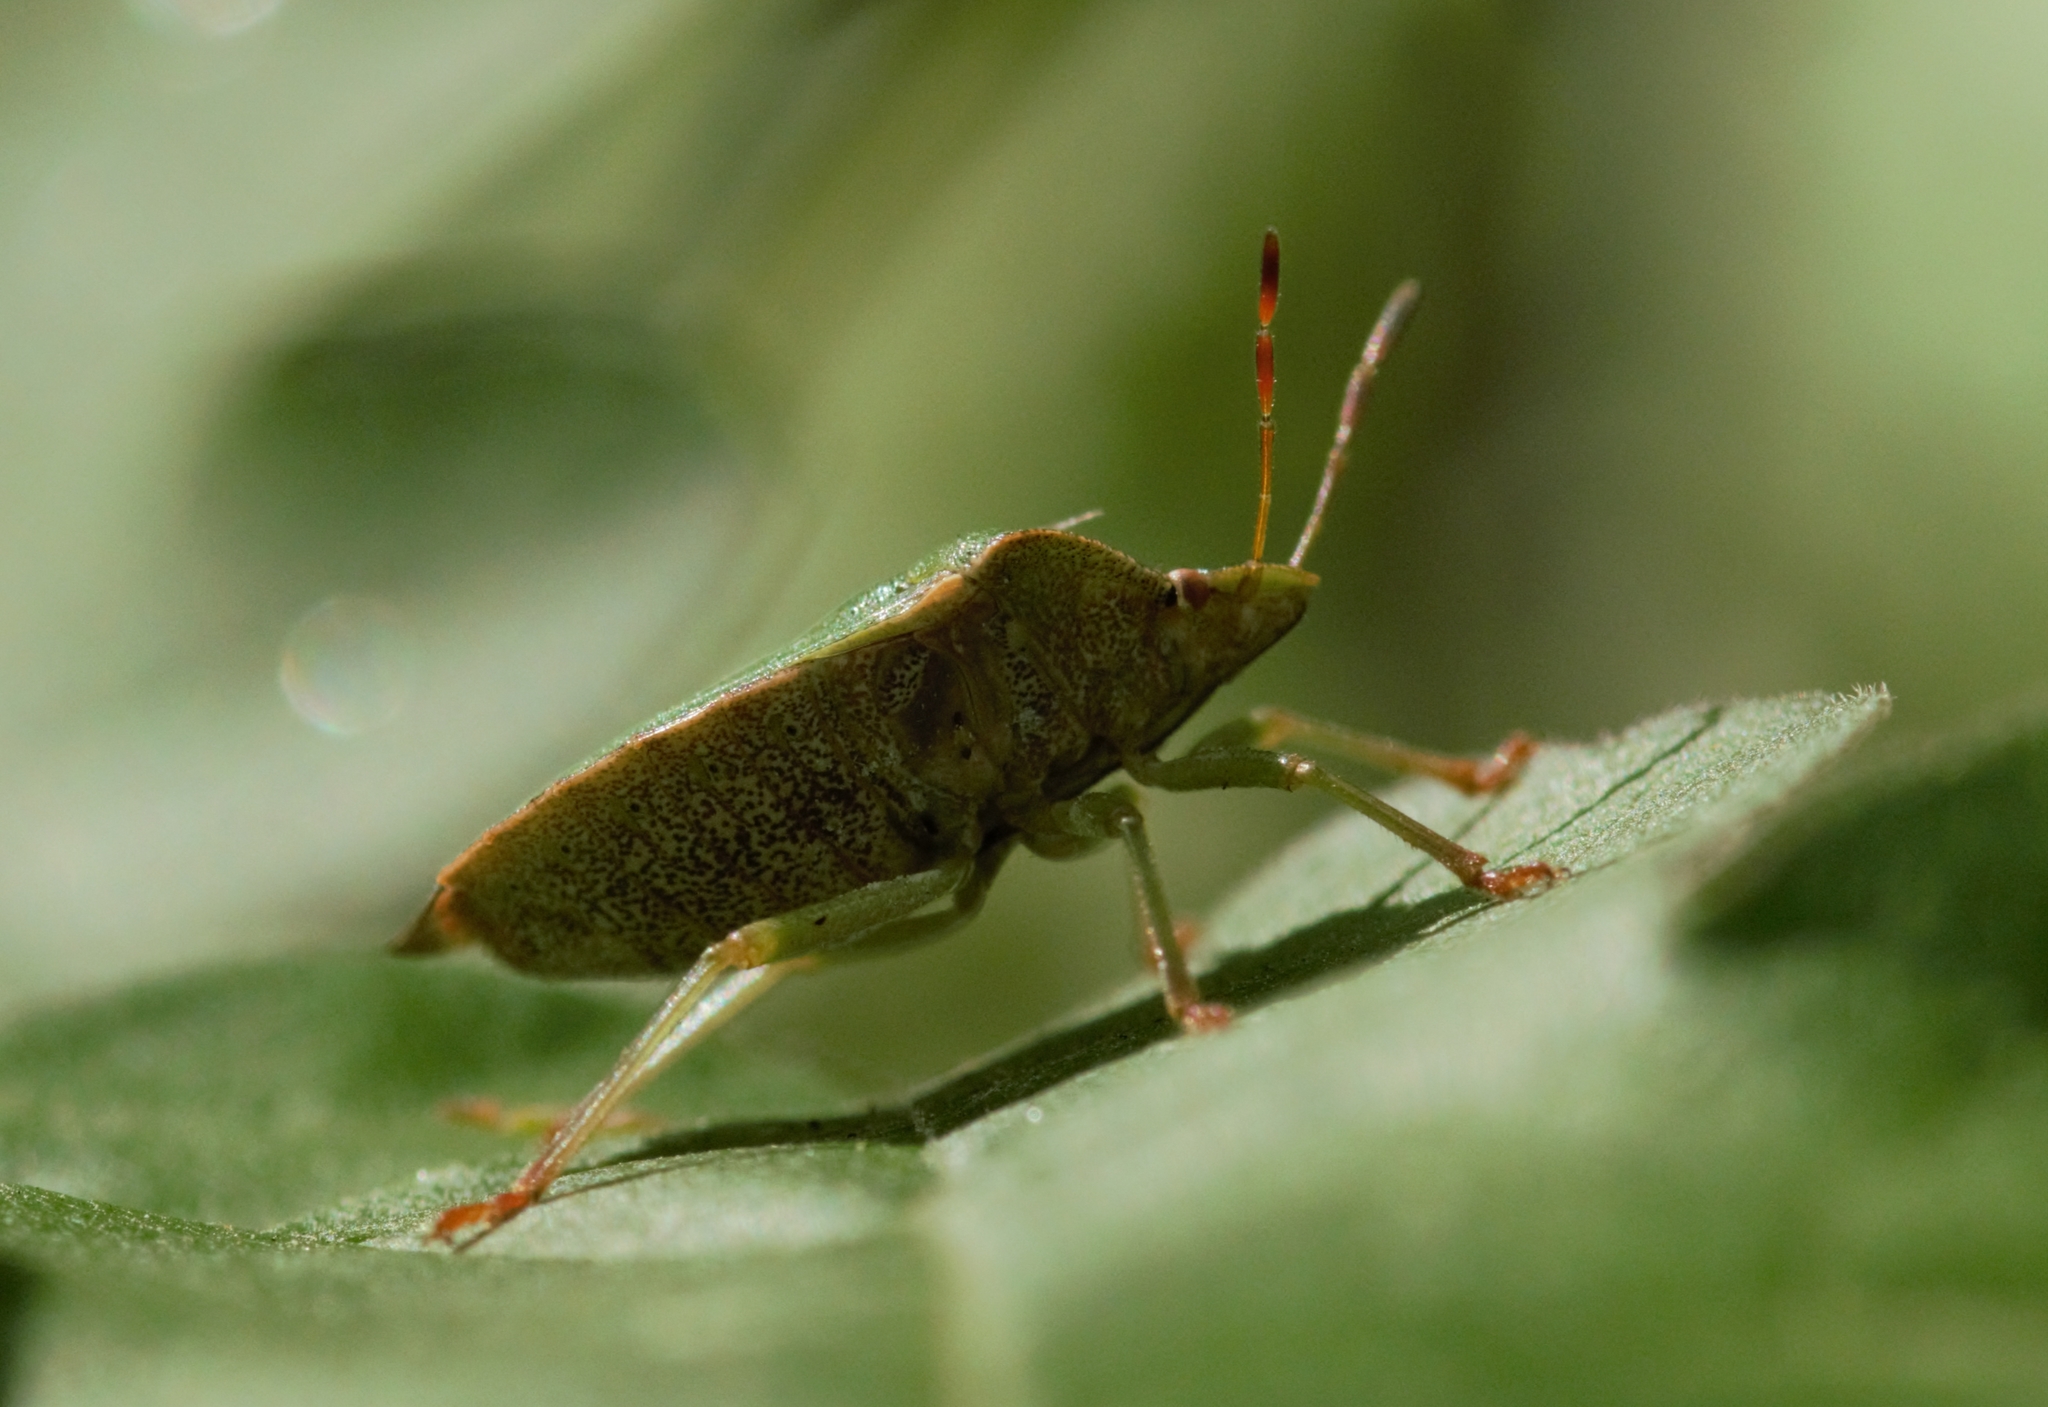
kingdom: Animalia
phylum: Arthropoda
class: Insecta
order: Hemiptera
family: Pentatomidae
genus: Palomena
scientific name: Palomena prasina
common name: Green shieldbug
